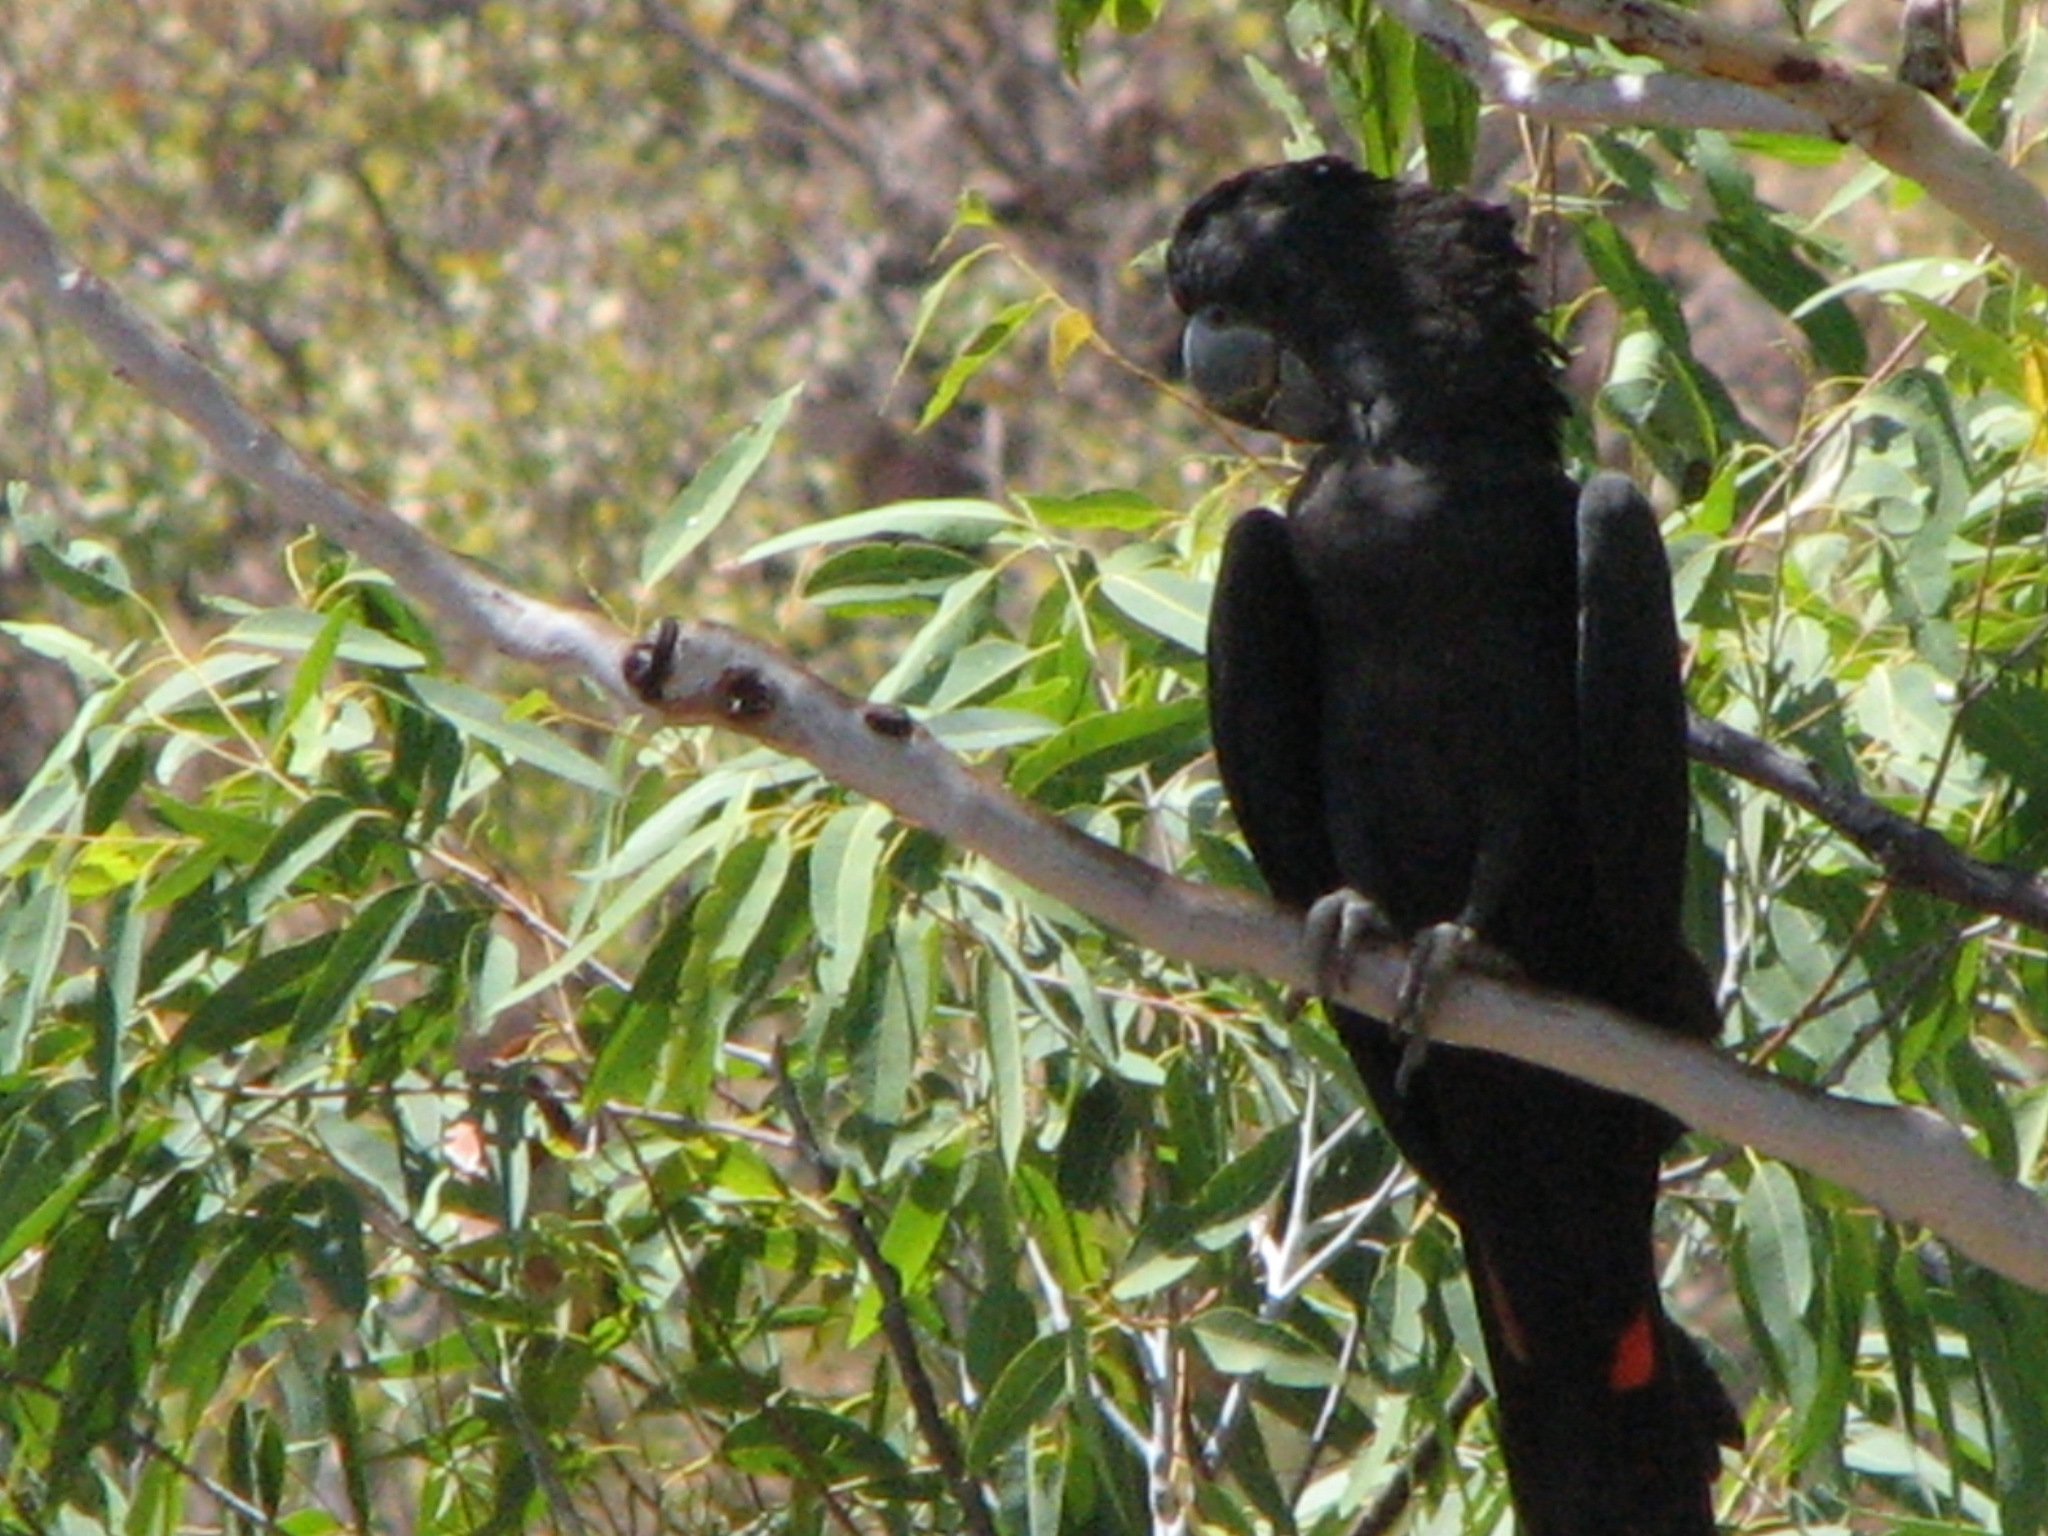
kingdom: Animalia
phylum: Chordata
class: Aves
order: Psittaciformes
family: Psittacidae
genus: Calyptorhynchus
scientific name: Calyptorhynchus banksii
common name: Red-tailed black cockatoo
